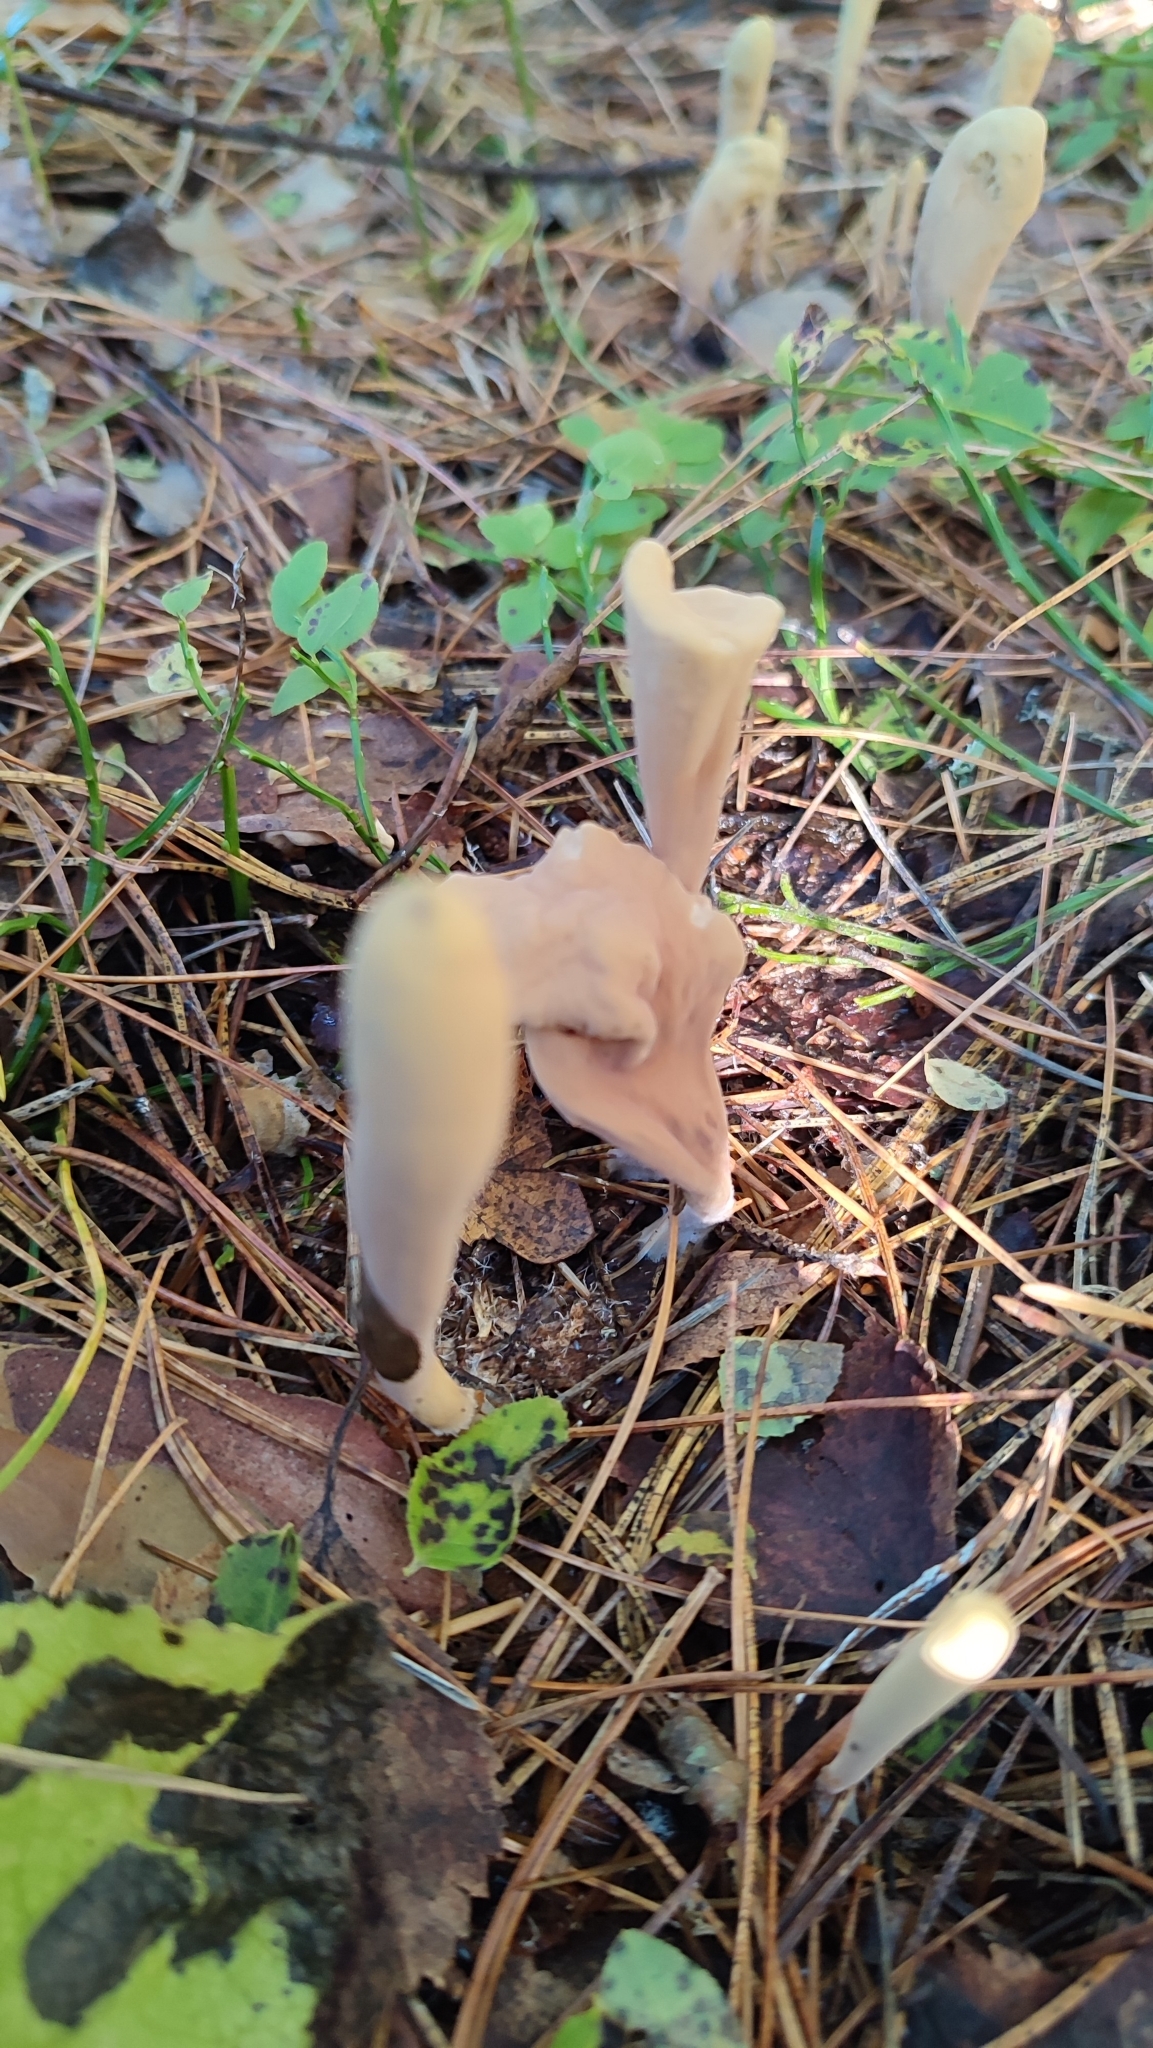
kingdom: Fungi
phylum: Basidiomycota
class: Agaricomycetes
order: Gomphales
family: Clavariadelphaceae
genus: Clavariadelphus
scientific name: Clavariadelphus ligula
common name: Ochre club
